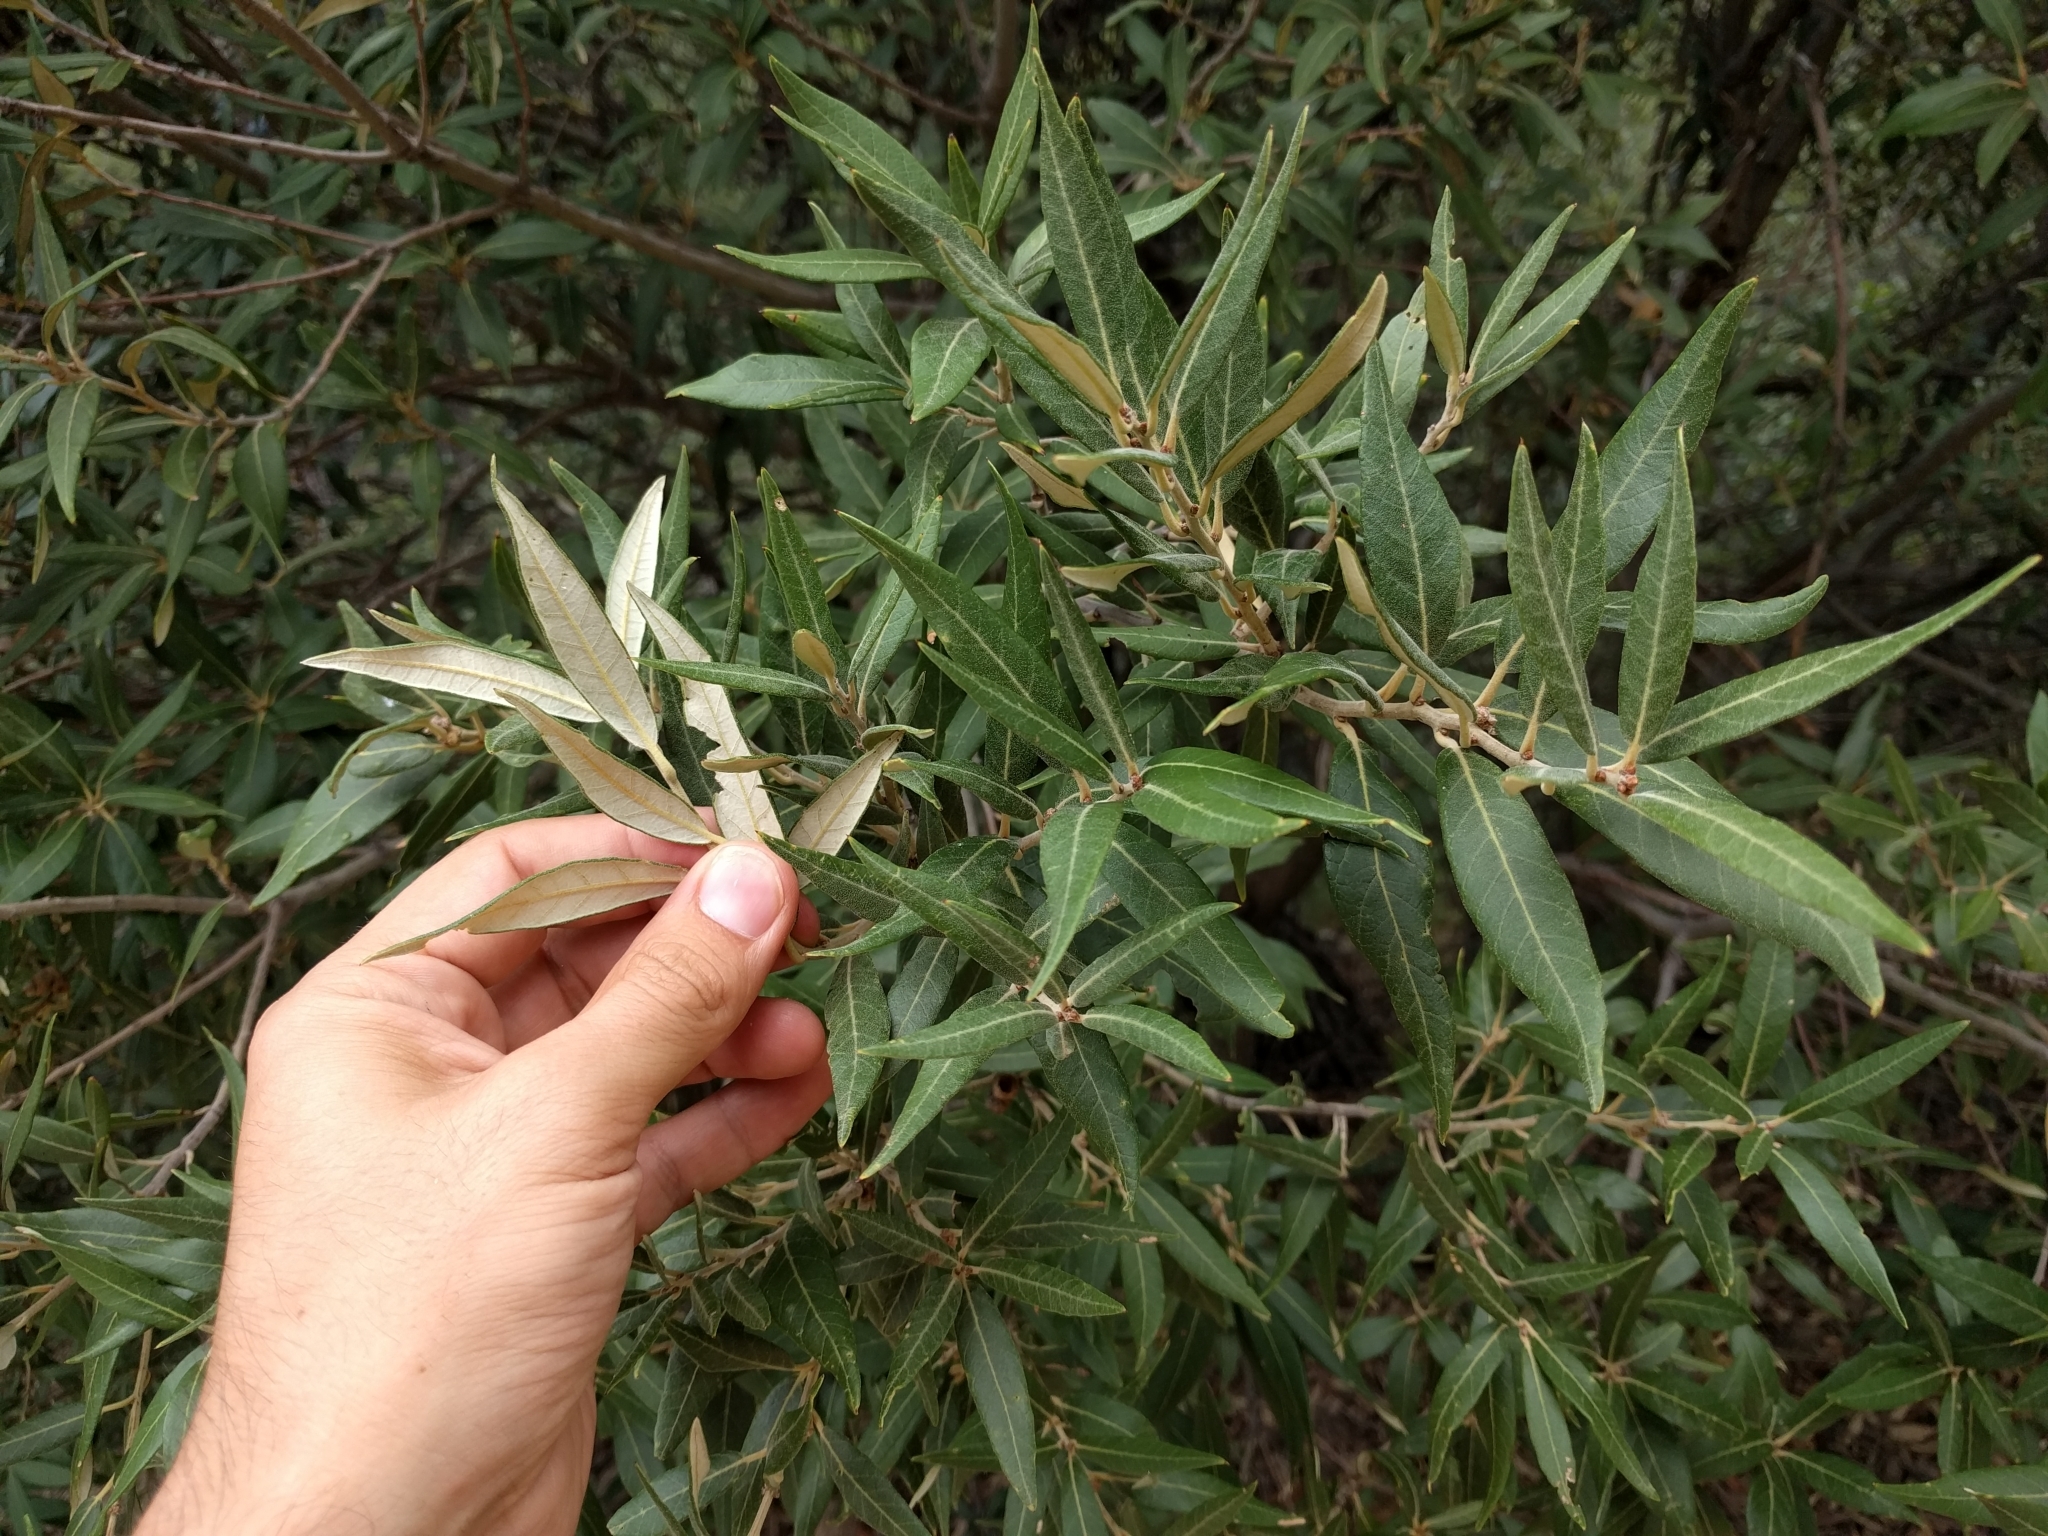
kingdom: Plantae
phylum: Tracheophyta
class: Magnoliopsida
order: Fagales
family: Fagaceae
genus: Quercus
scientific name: Quercus hypoleucoides
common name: Silverleaf oak
